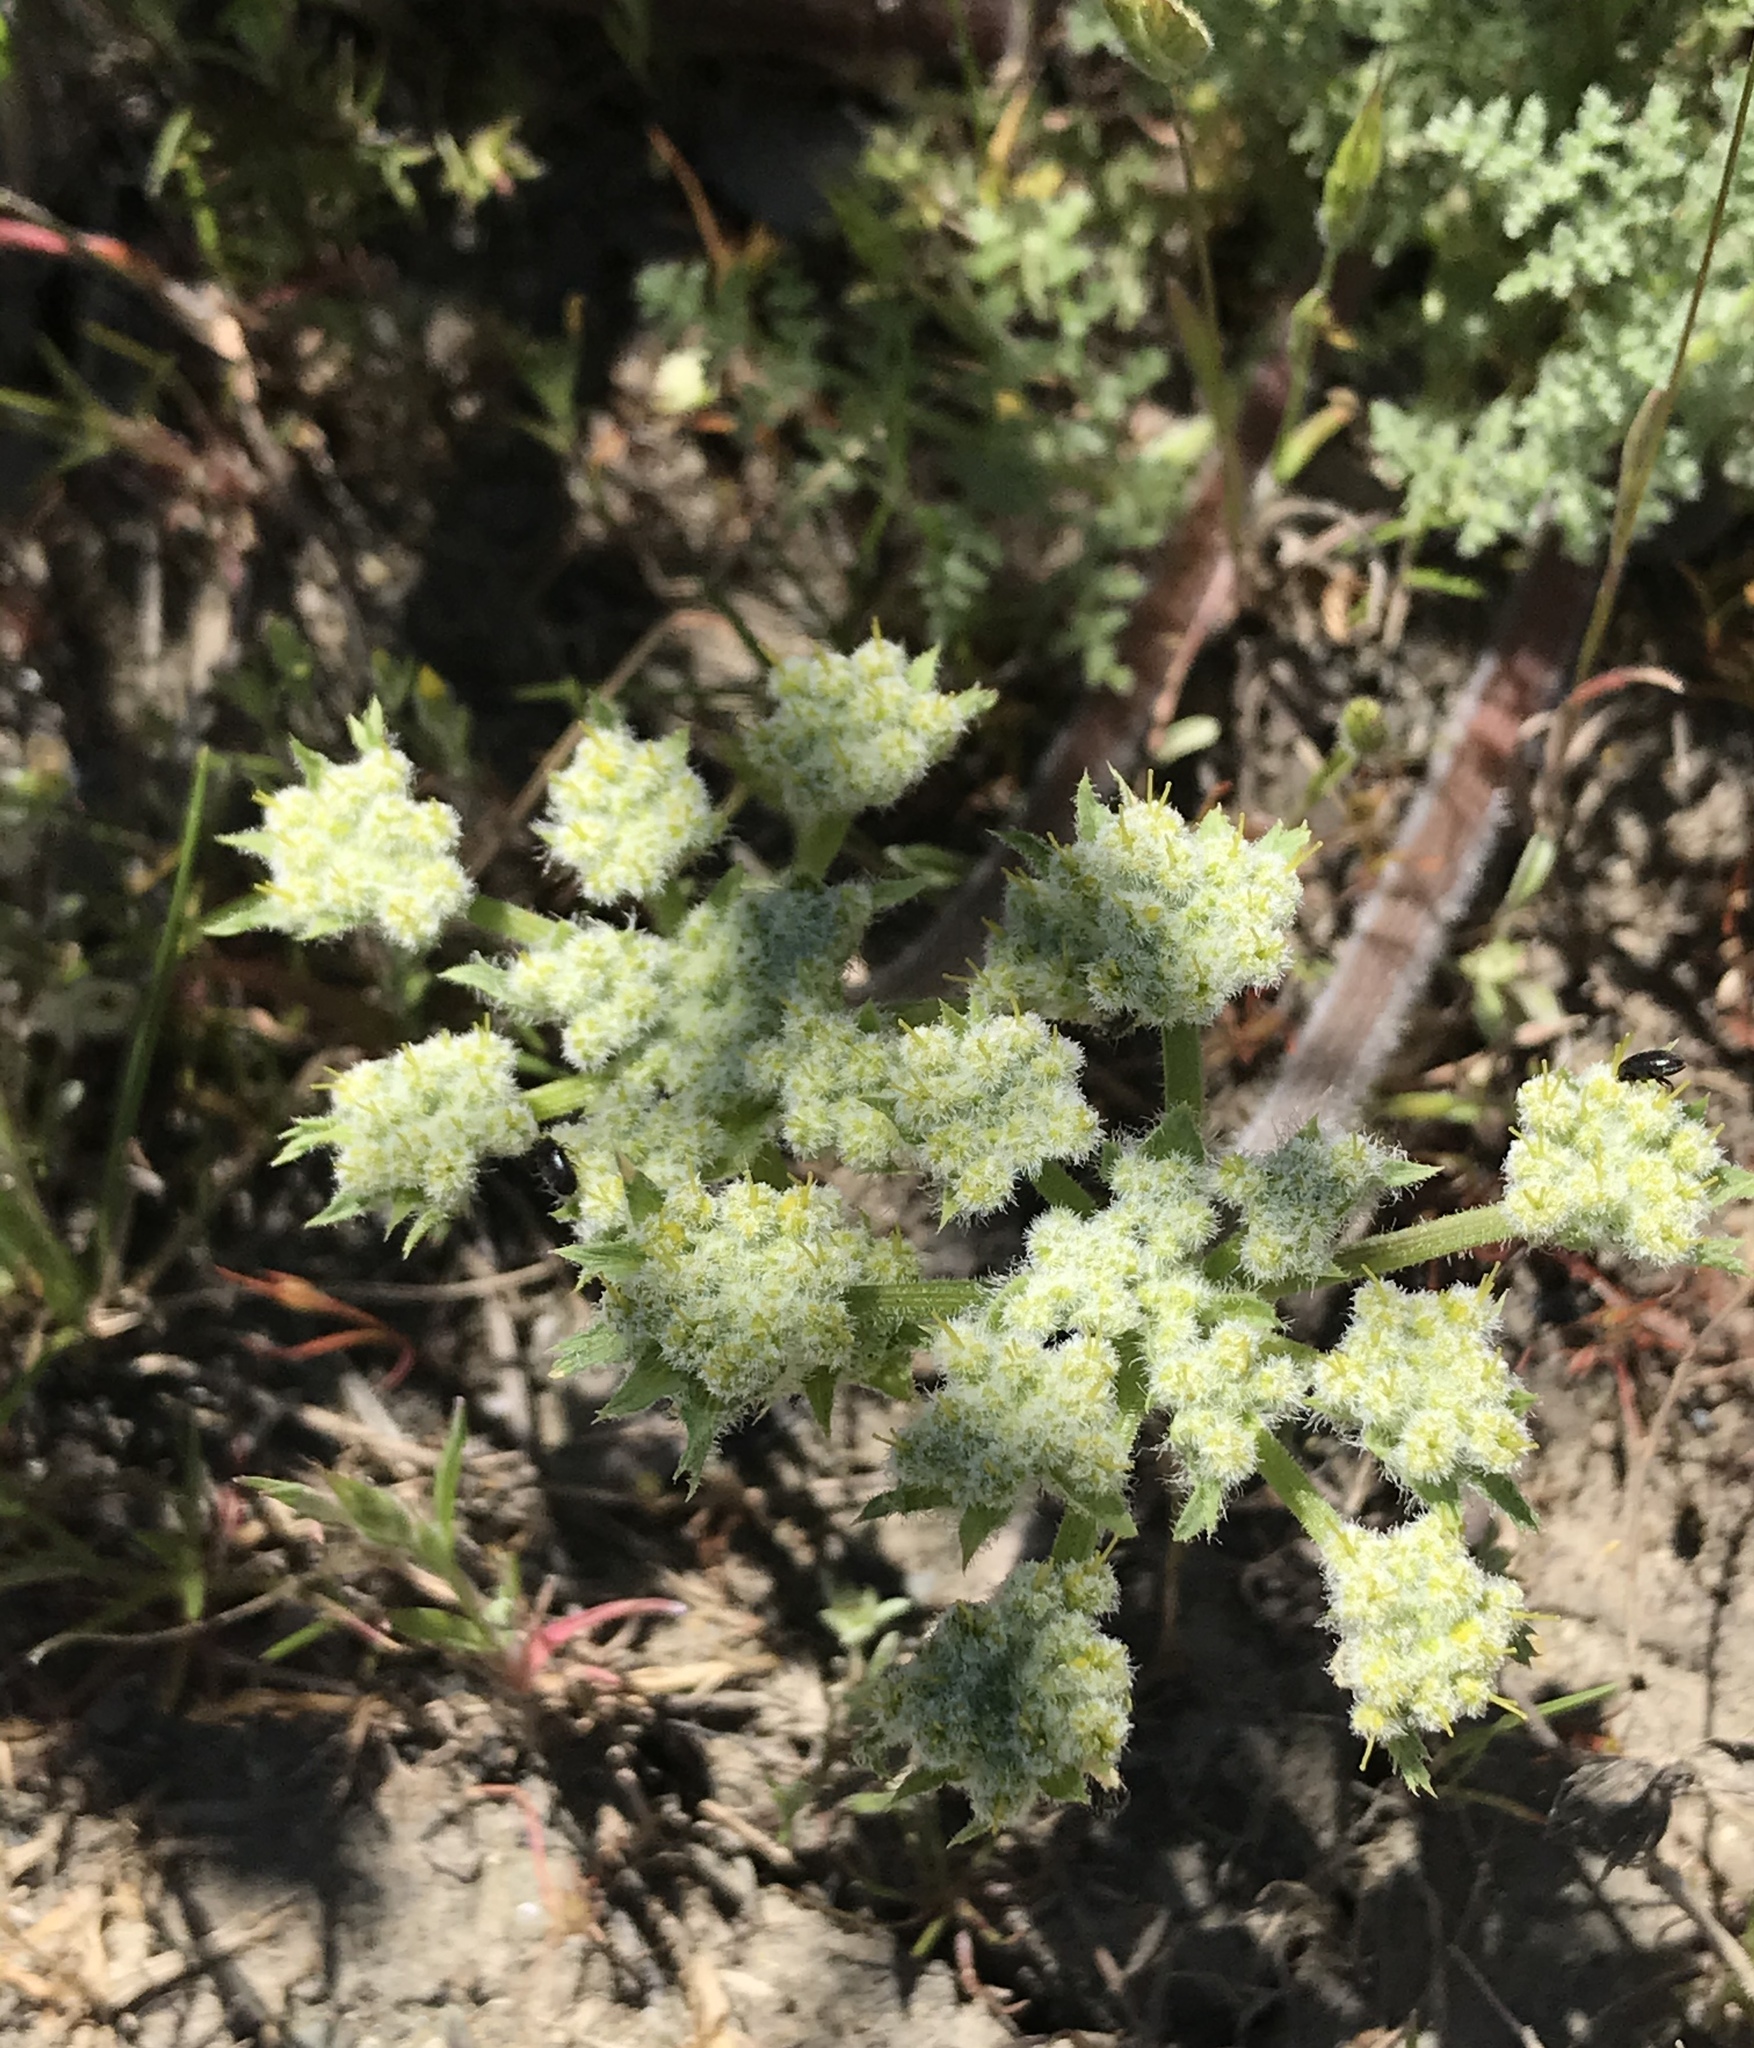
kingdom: Plantae
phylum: Tracheophyta
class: Magnoliopsida
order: Apiales
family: Apiaceae
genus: Lomatium
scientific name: Lomatium dasycarpum
